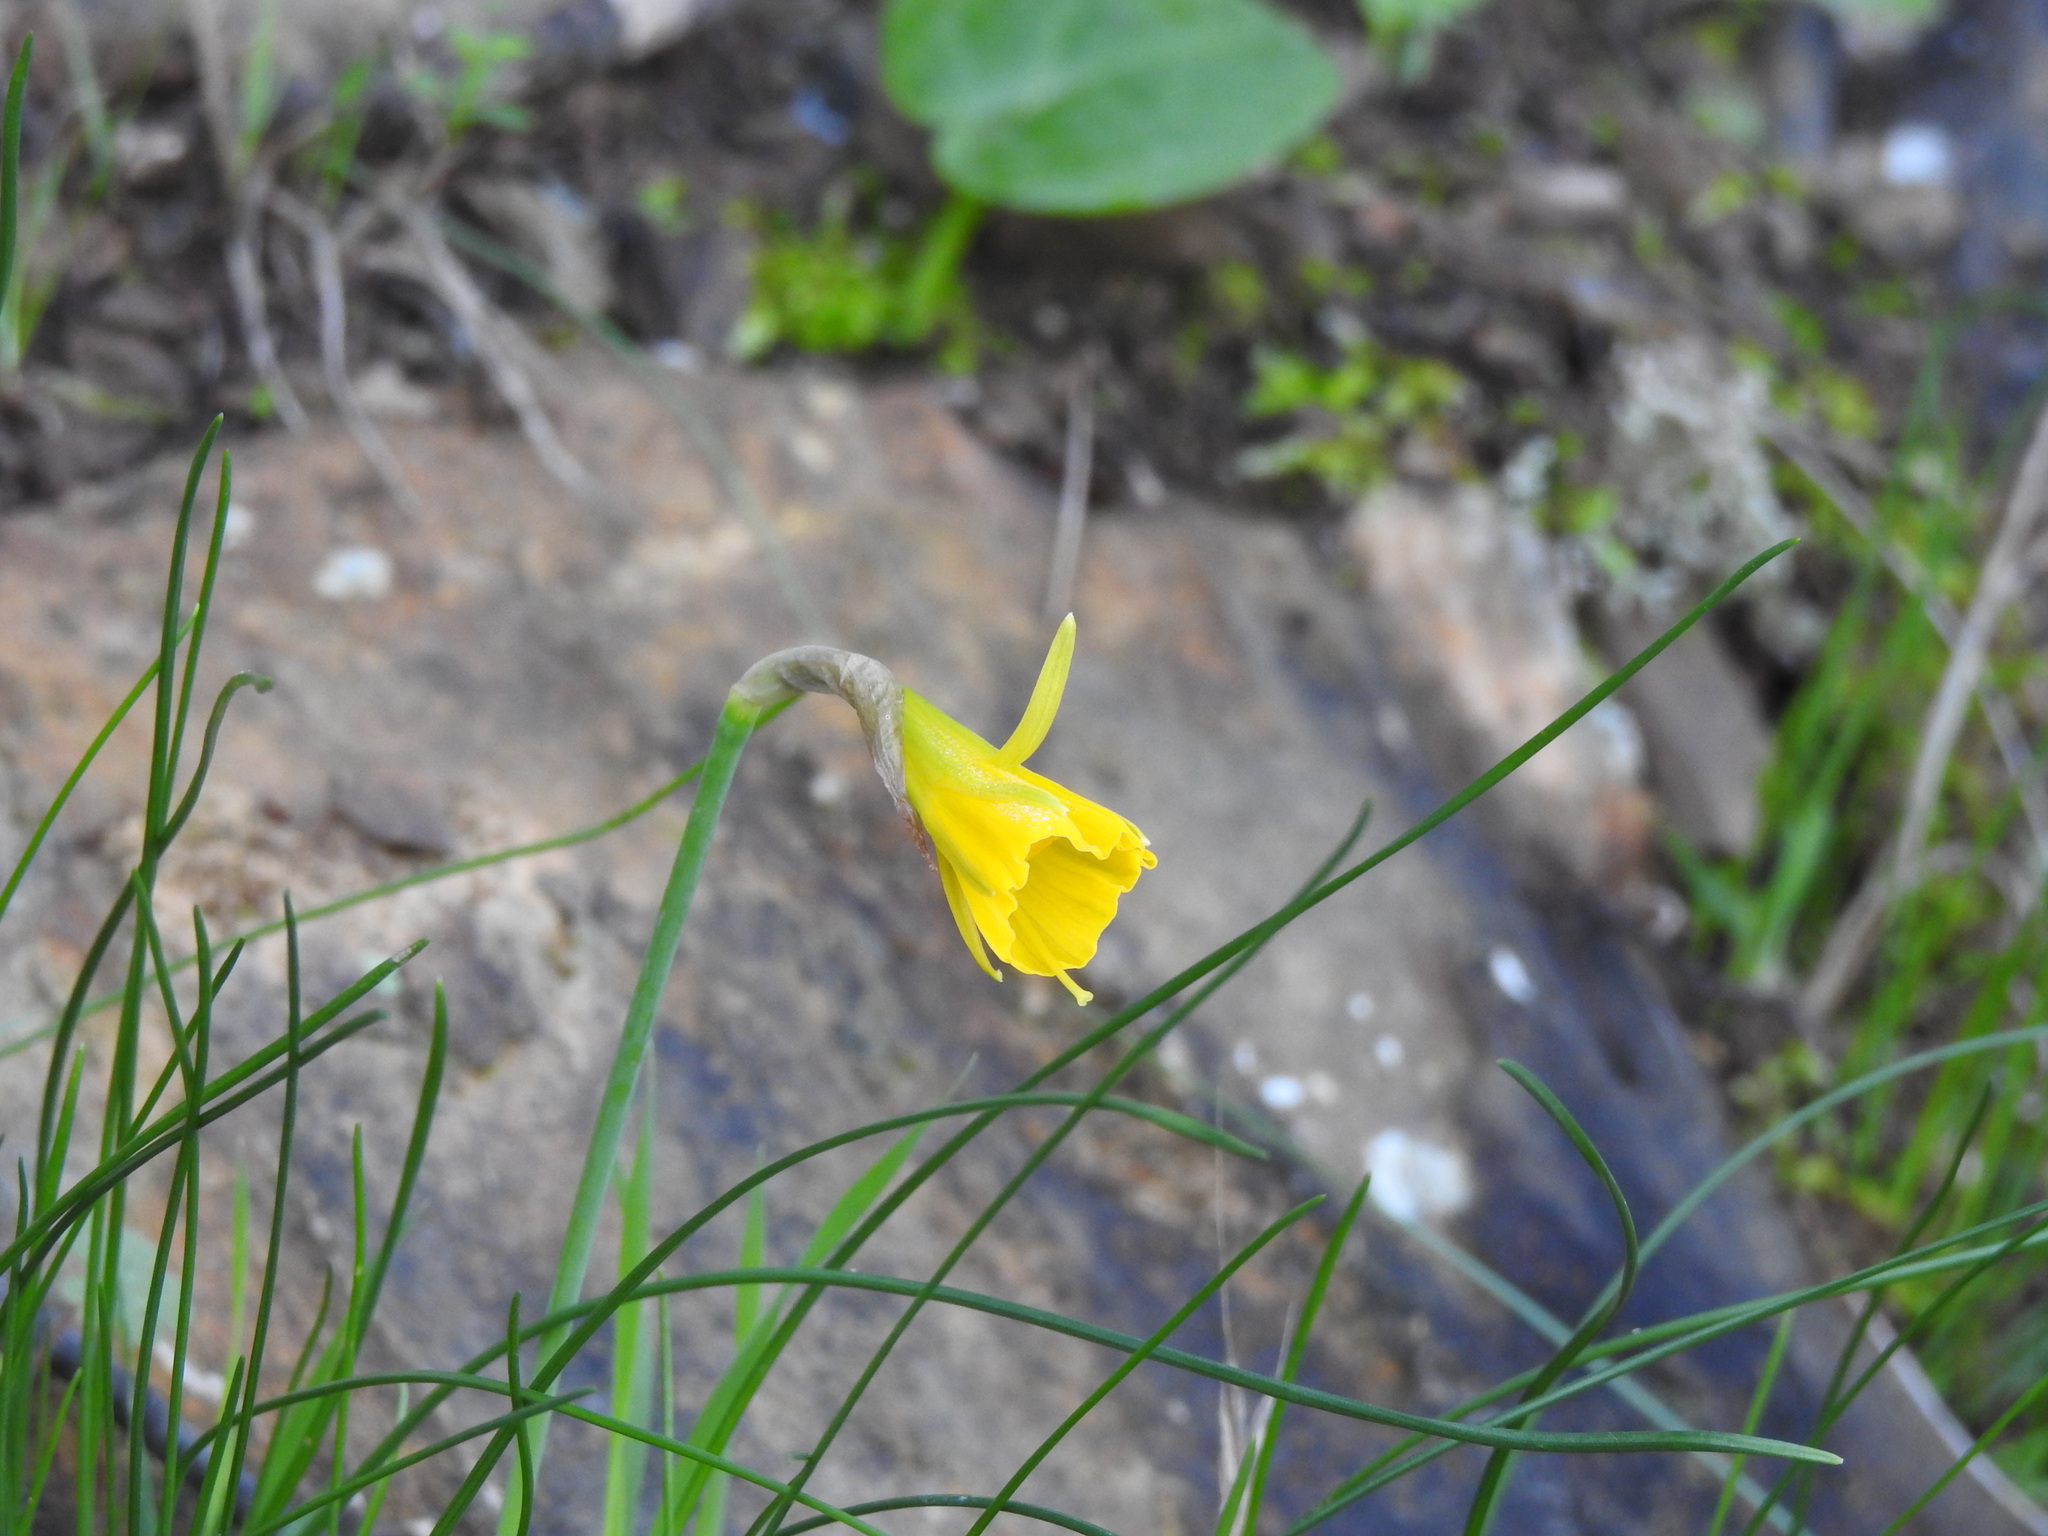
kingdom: Plantae
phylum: Tracheophyta
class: Liliopsida
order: Asparagales
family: Amaryllidaceae
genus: Narcissus
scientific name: Narcissus bulbocodium
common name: Hoop-petticoat daffodil
